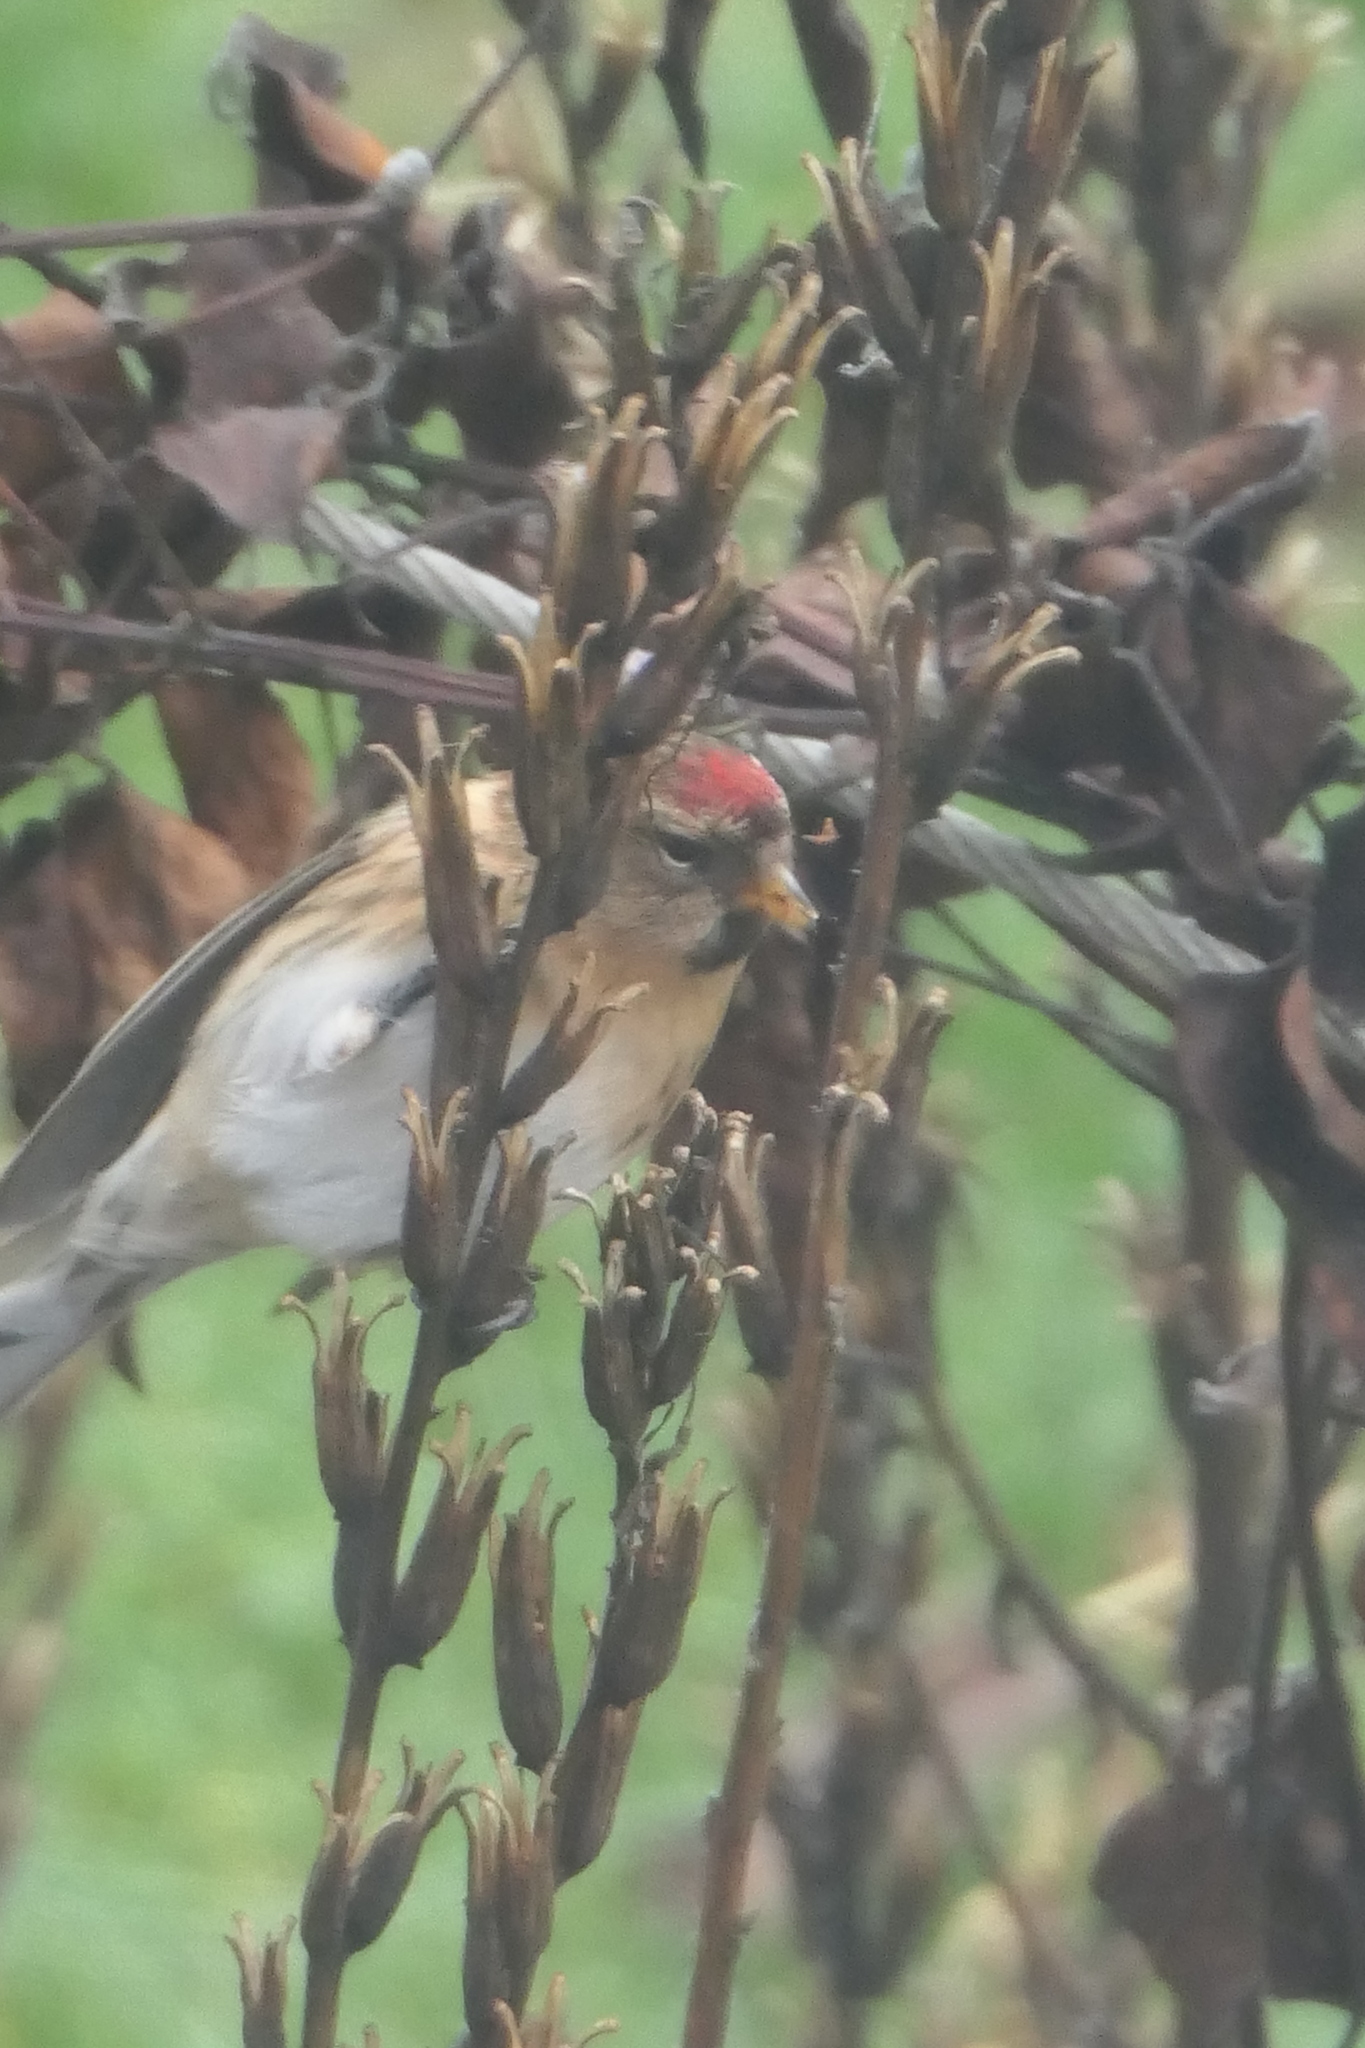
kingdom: Animalia
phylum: Chordata
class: Aves
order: Passeriformes
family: Fringillidae
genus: Acanthis
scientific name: Acanthis flammea
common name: Common redpoll
